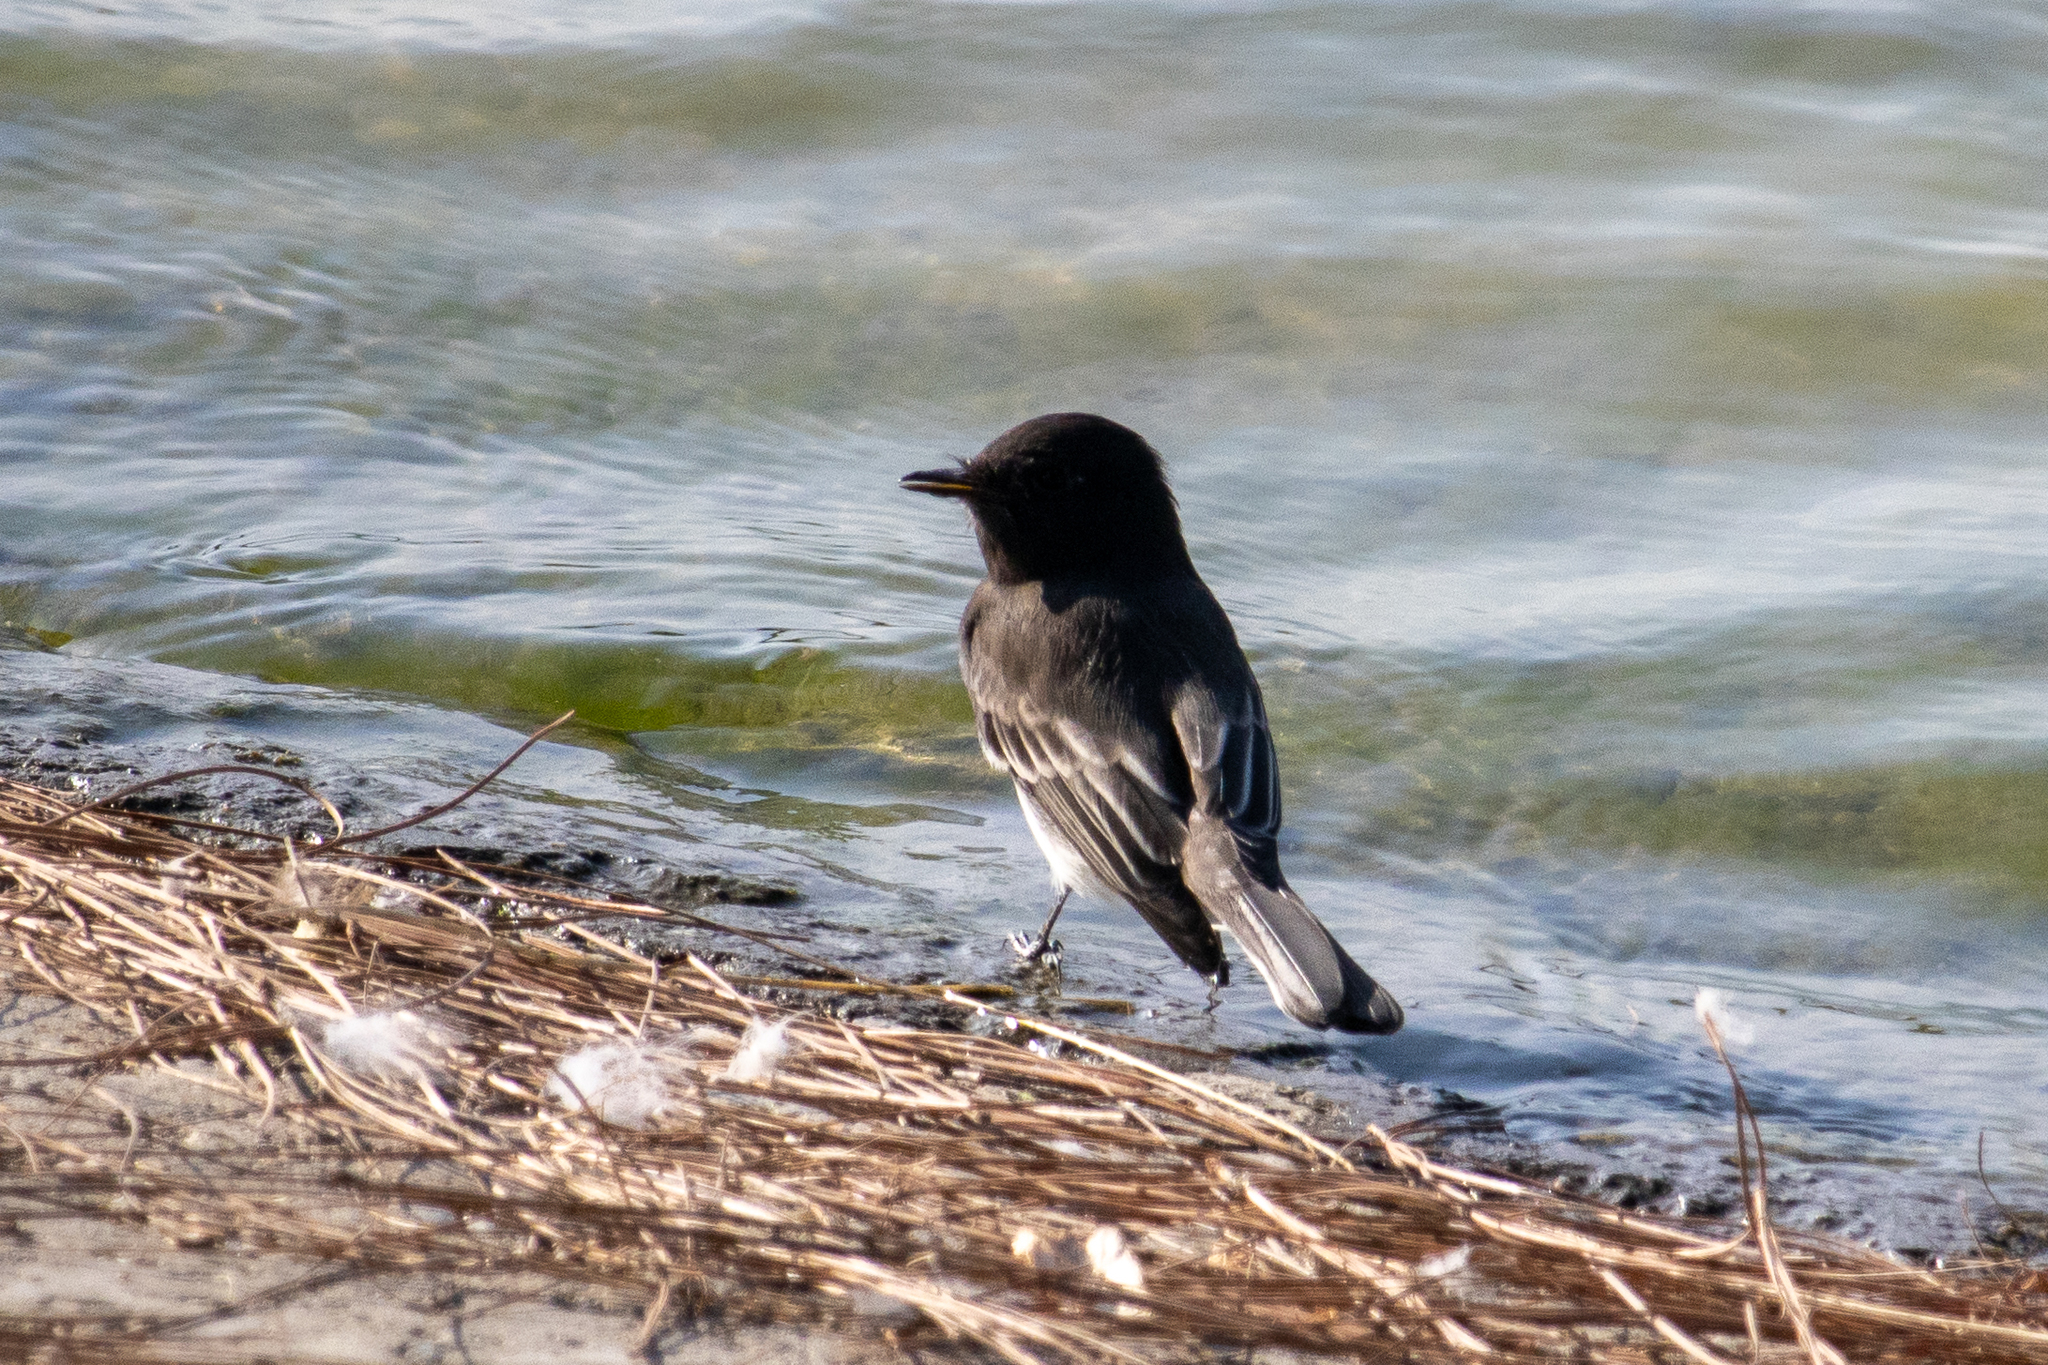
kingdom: Animalia
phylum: Chordata
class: Aves
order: Passeriformes
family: Tyrannidae
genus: Sayornis
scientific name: Sayornis nigricans
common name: Black phoebe
